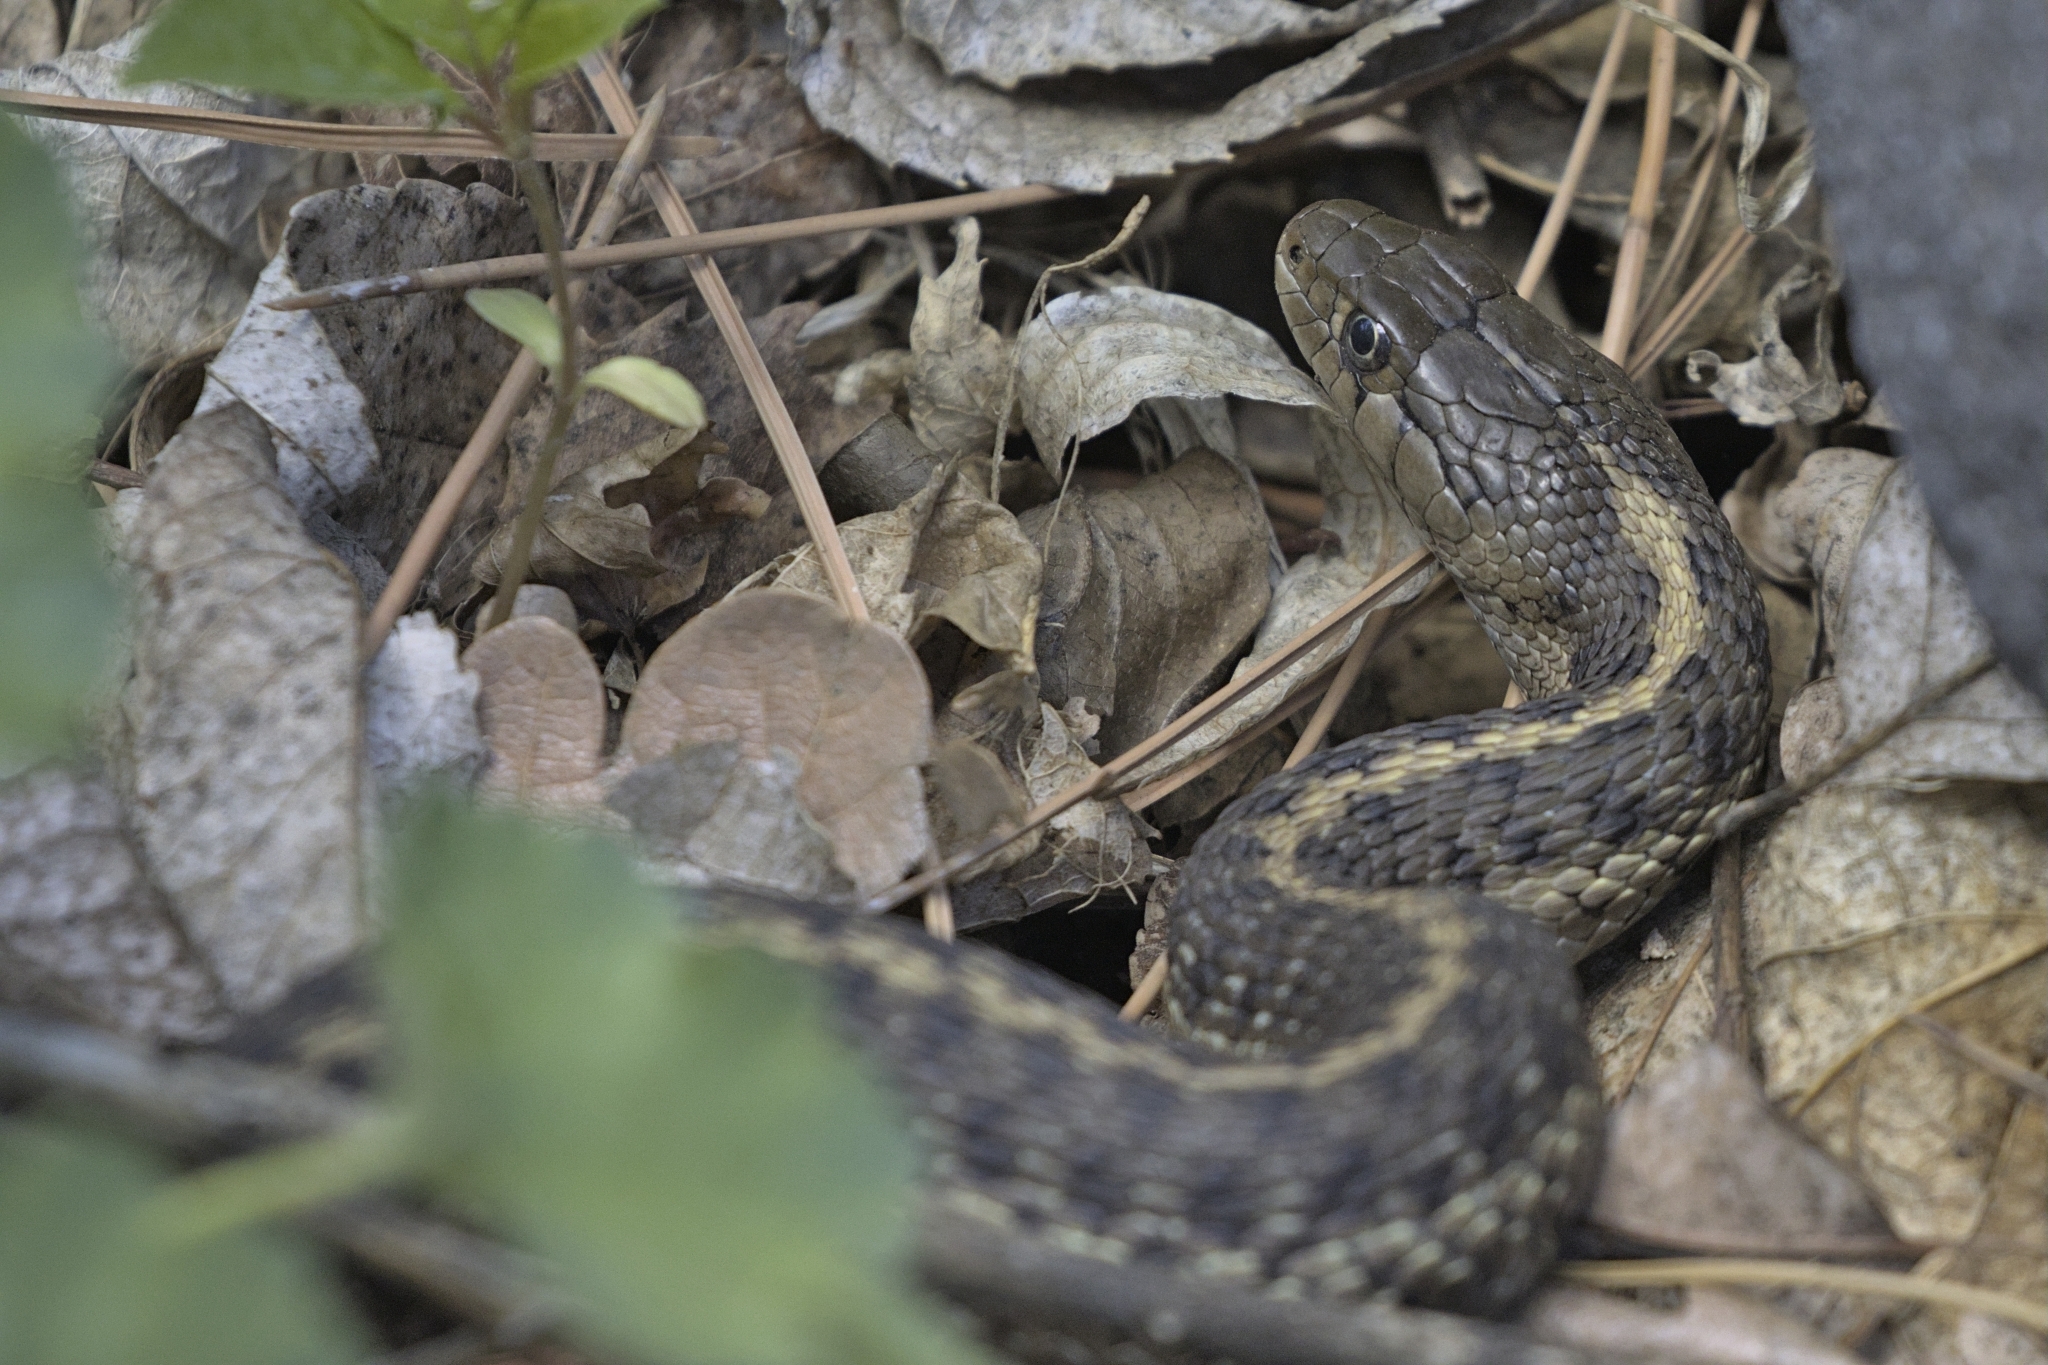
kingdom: Animalia
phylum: Chordata
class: Squamata
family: Colubridae
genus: Thamnophis
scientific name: Thamnophis elegans
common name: Western terrestrial garter snake
